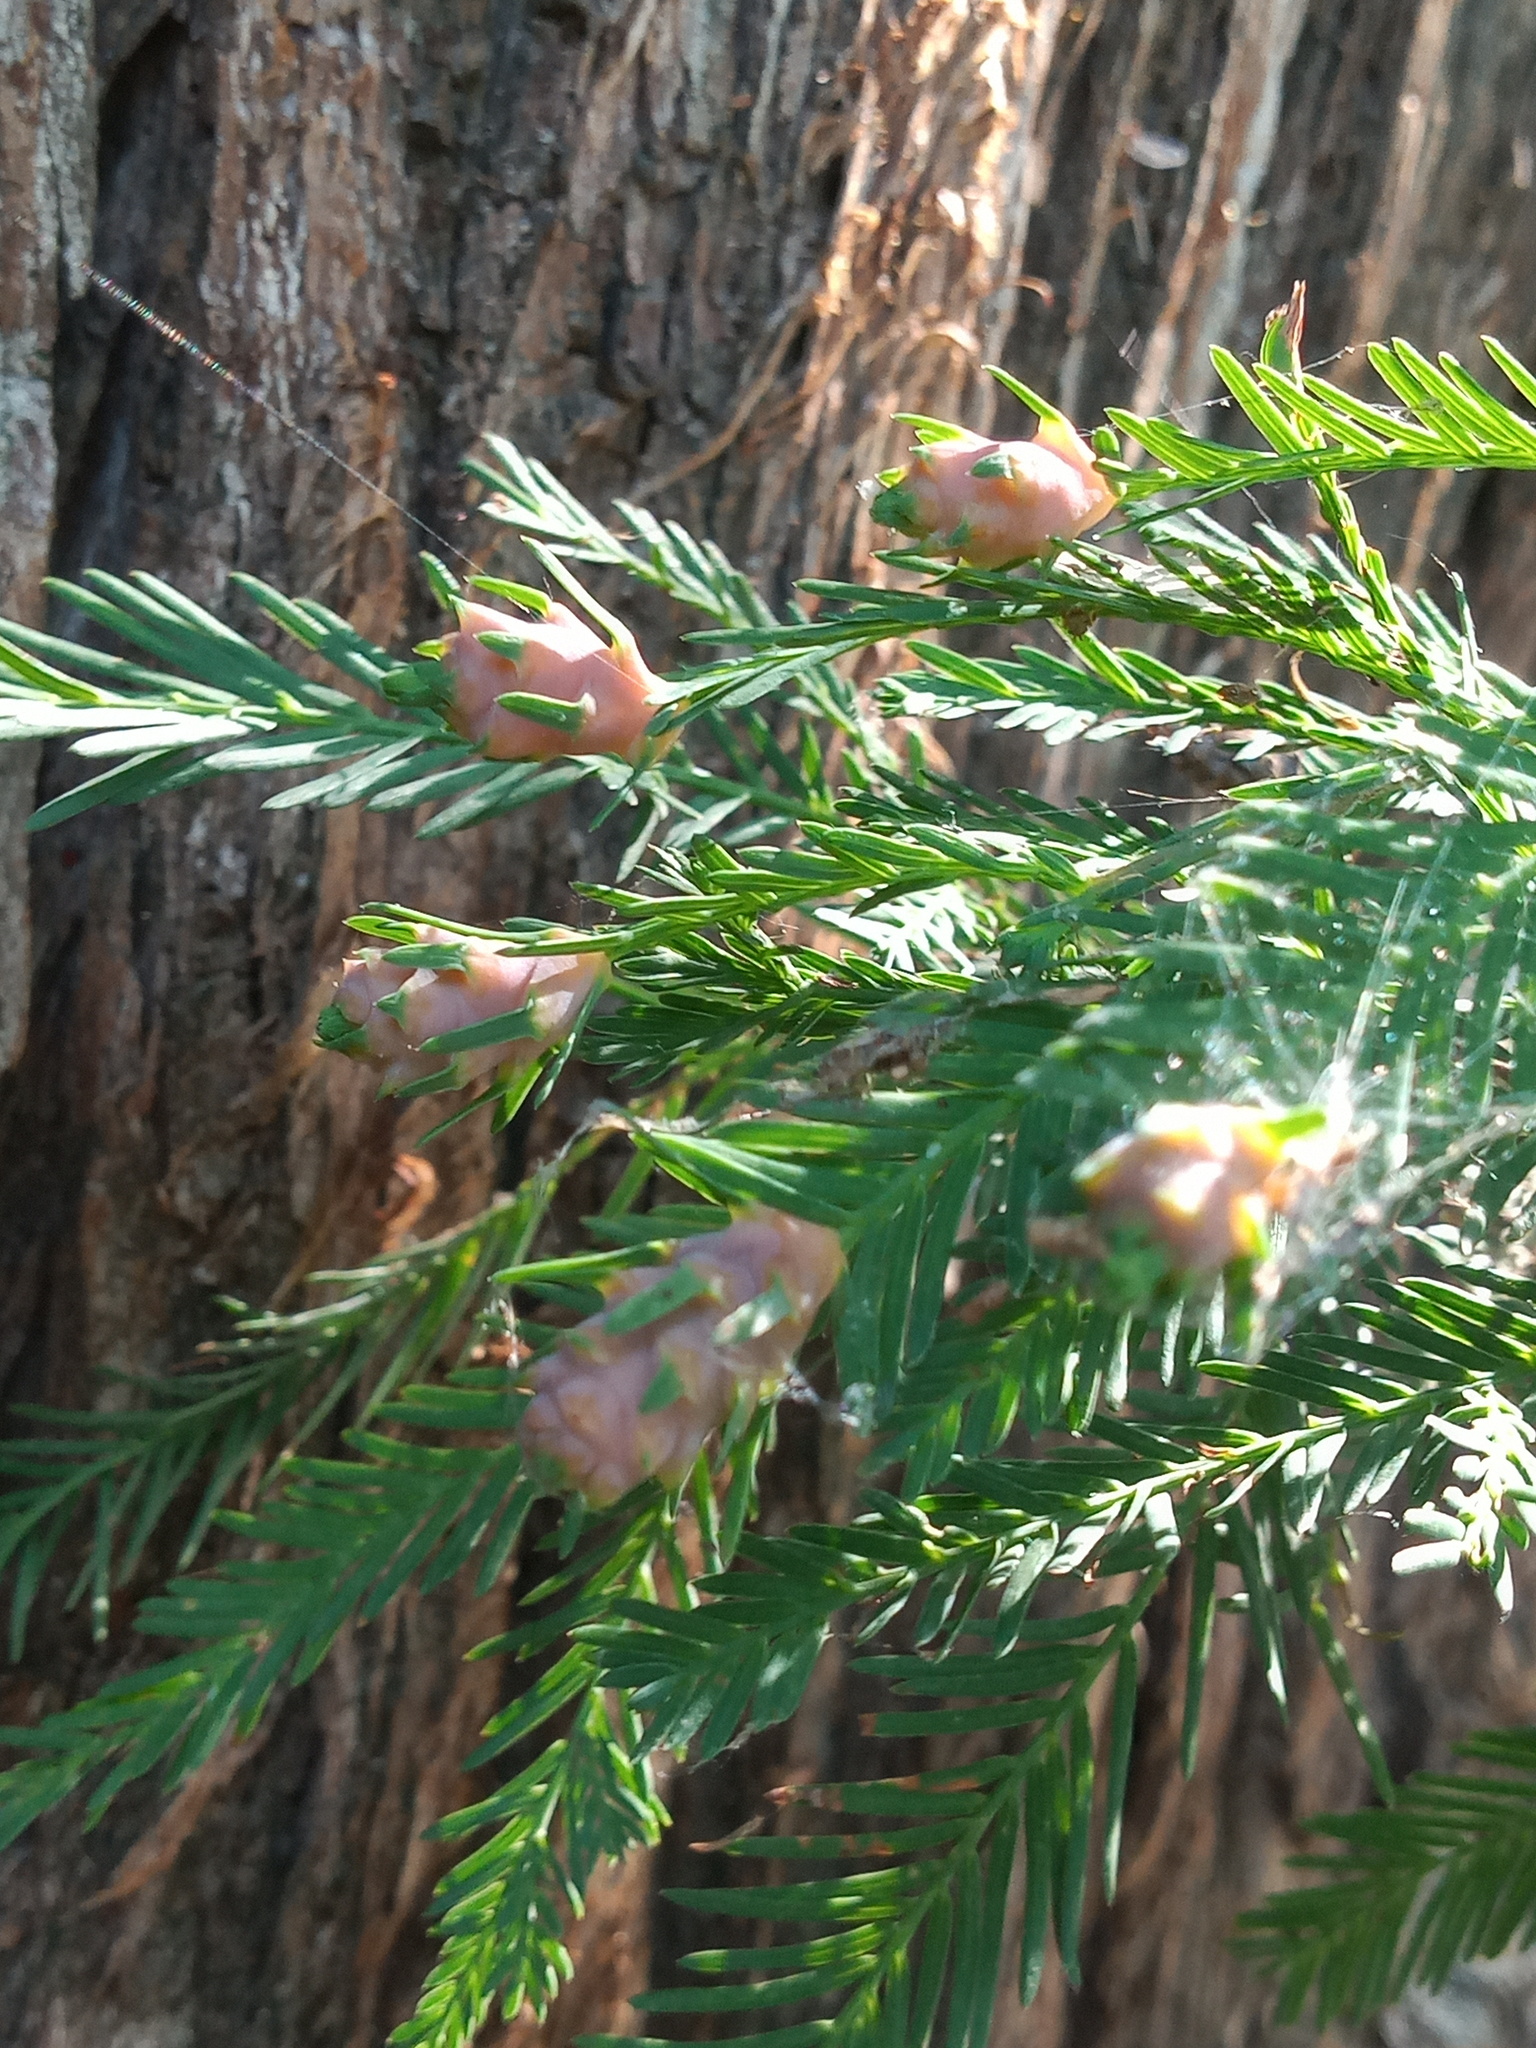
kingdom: Plantae
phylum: Tracheophyta
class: Pinopsida
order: Pinales
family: Cupressaceae
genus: Taxodium
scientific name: Taxodium mucronatum
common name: Montezume bald cypress
